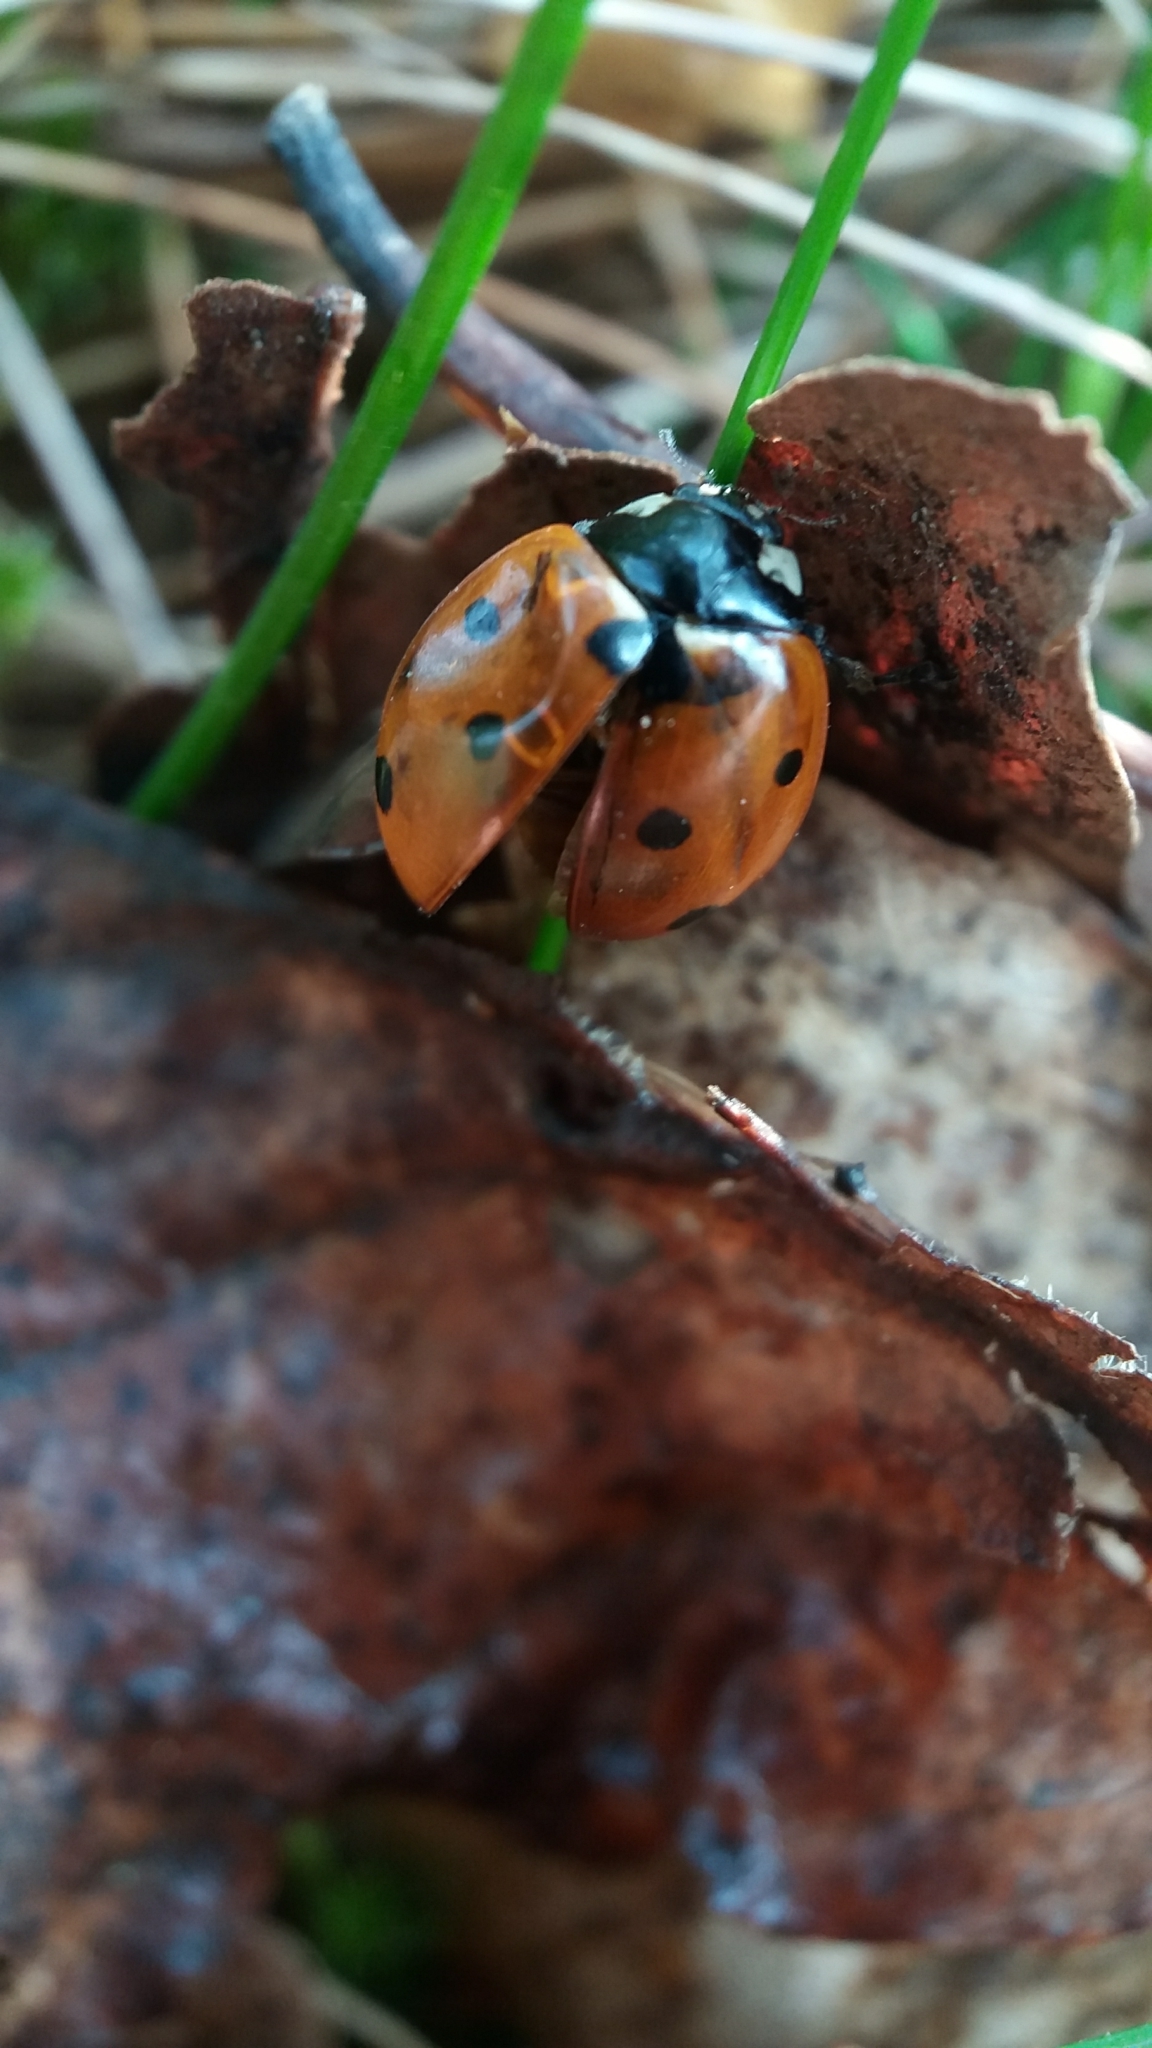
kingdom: Animalia
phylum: Arthropoda
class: Insecta
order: Coleoptera
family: Coccinellidae
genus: Coccinella
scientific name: Coccinella septempunctata
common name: Sevenspotted lady beetle
